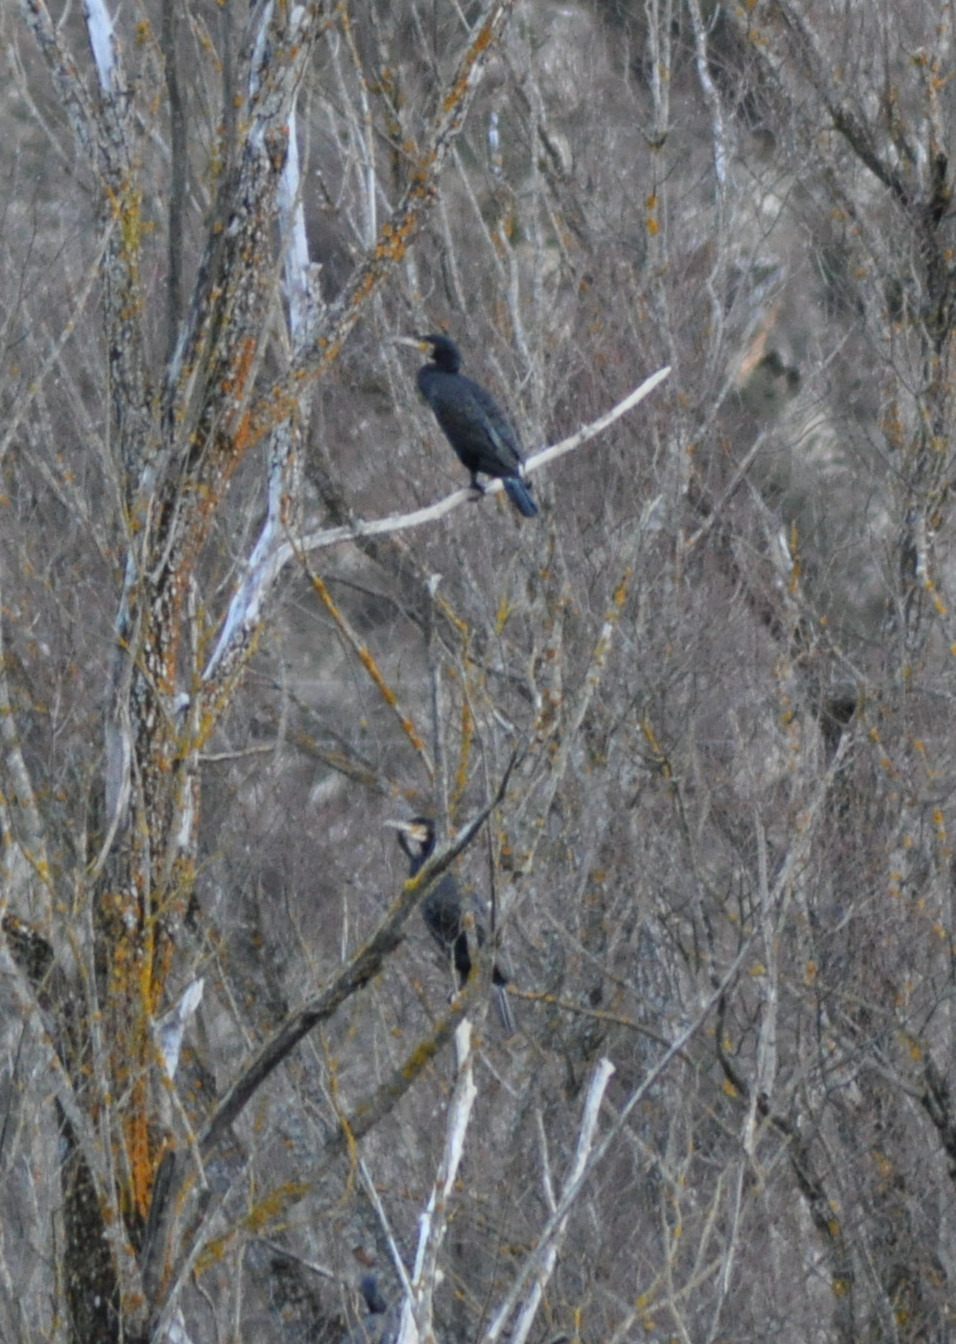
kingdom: Animalia
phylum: Chordata
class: Aves
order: Suliformes
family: Phalacrocoracidae
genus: Phalacrocorax
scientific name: Phalacrocorax carbo
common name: Great cormorant
